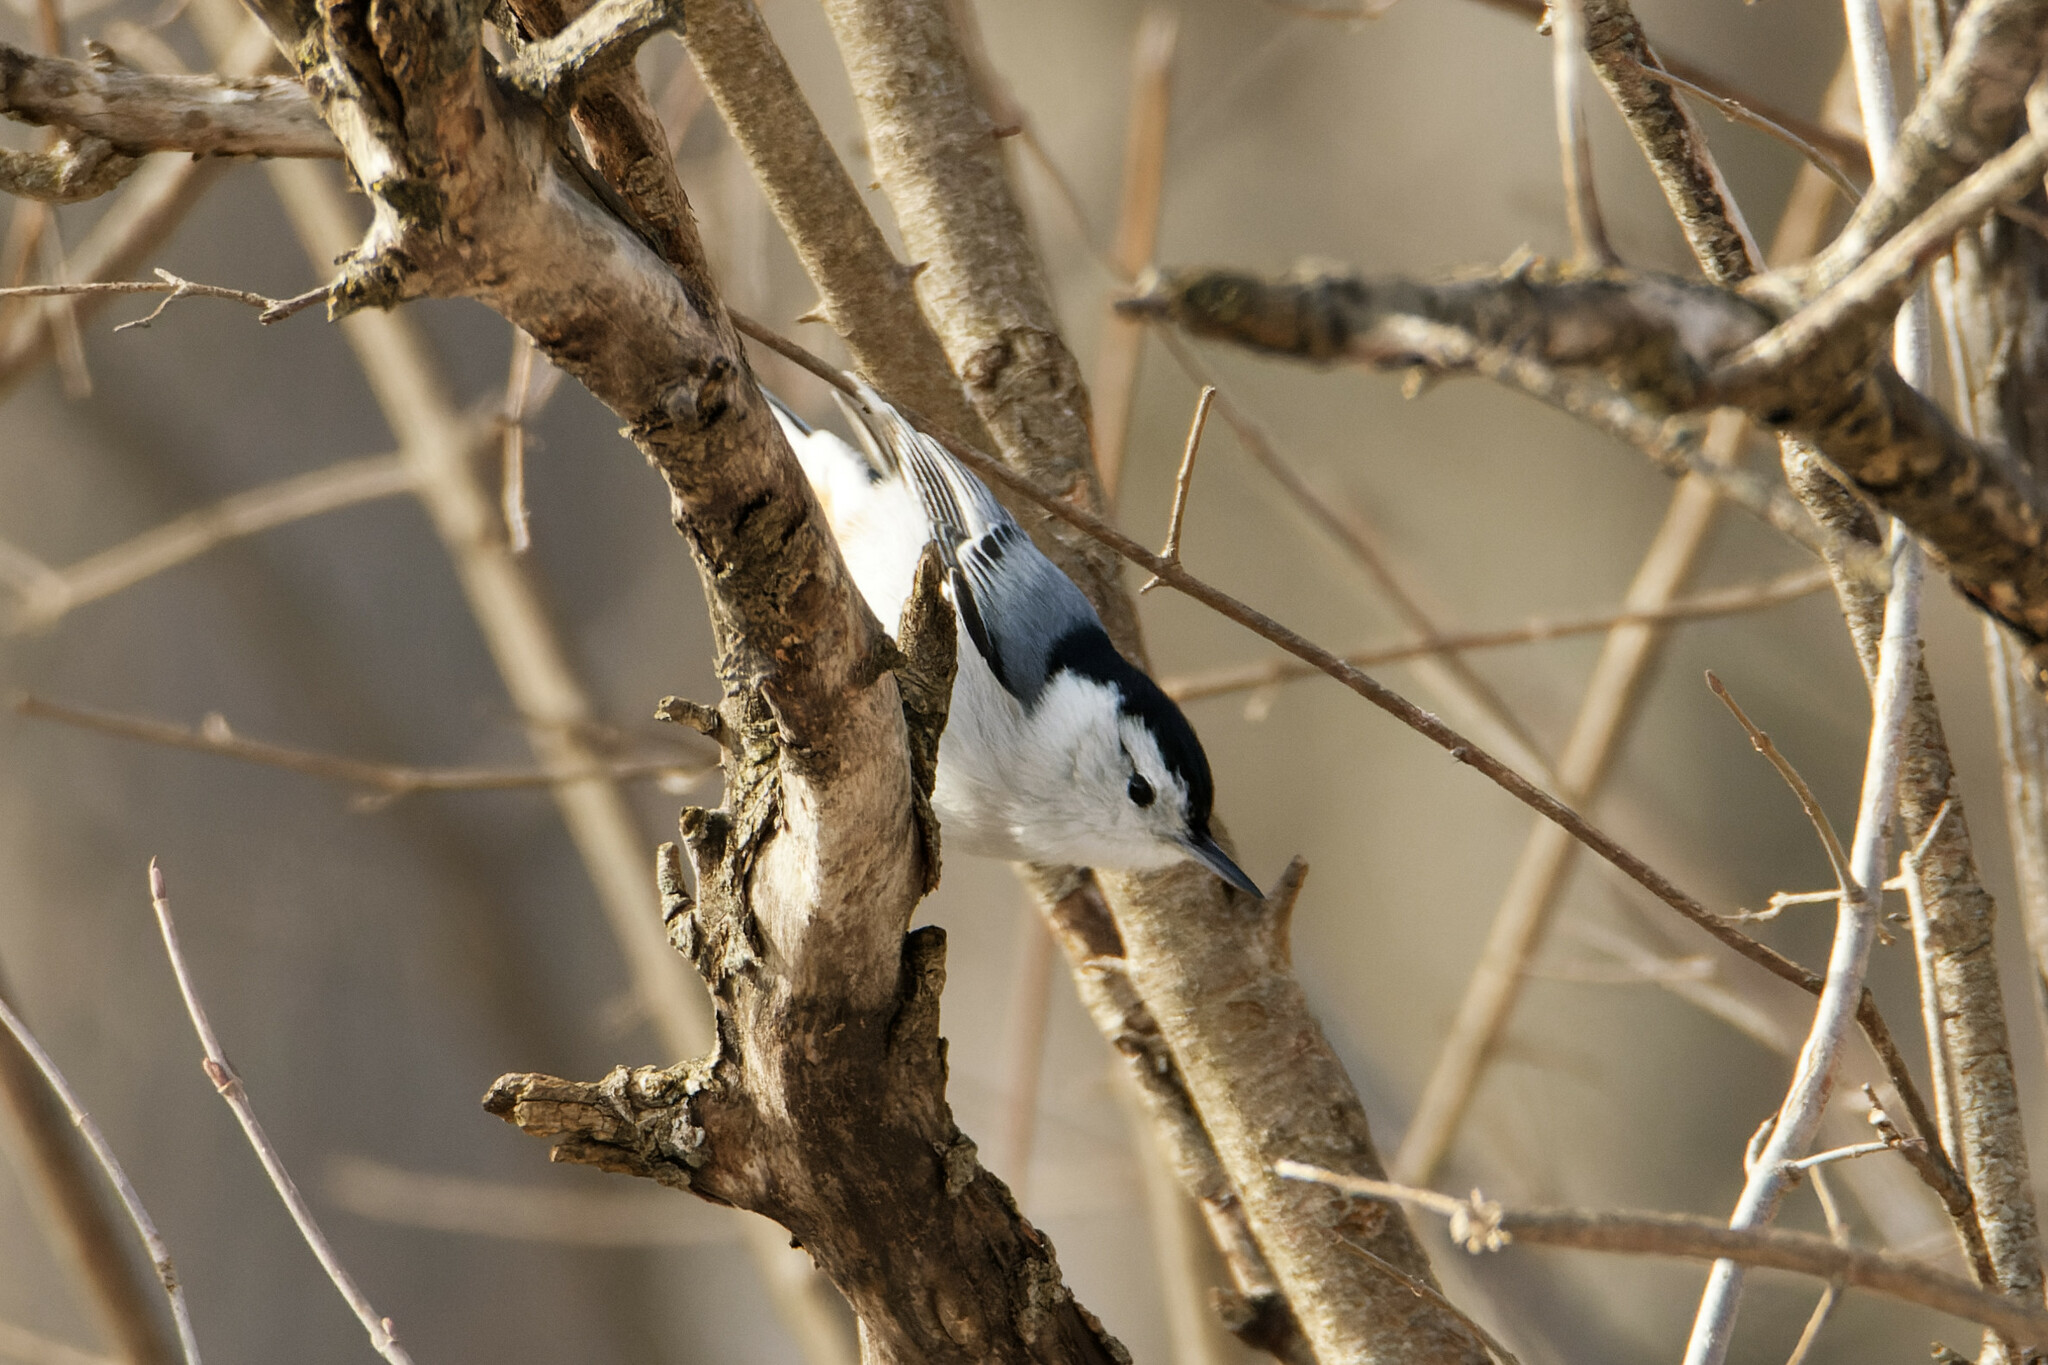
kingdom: Animalia
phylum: Chordata
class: Aves
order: Passeriformes
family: Sittidae
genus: Sitta
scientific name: Sitta carolinensis
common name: White-breasted nuthatch
